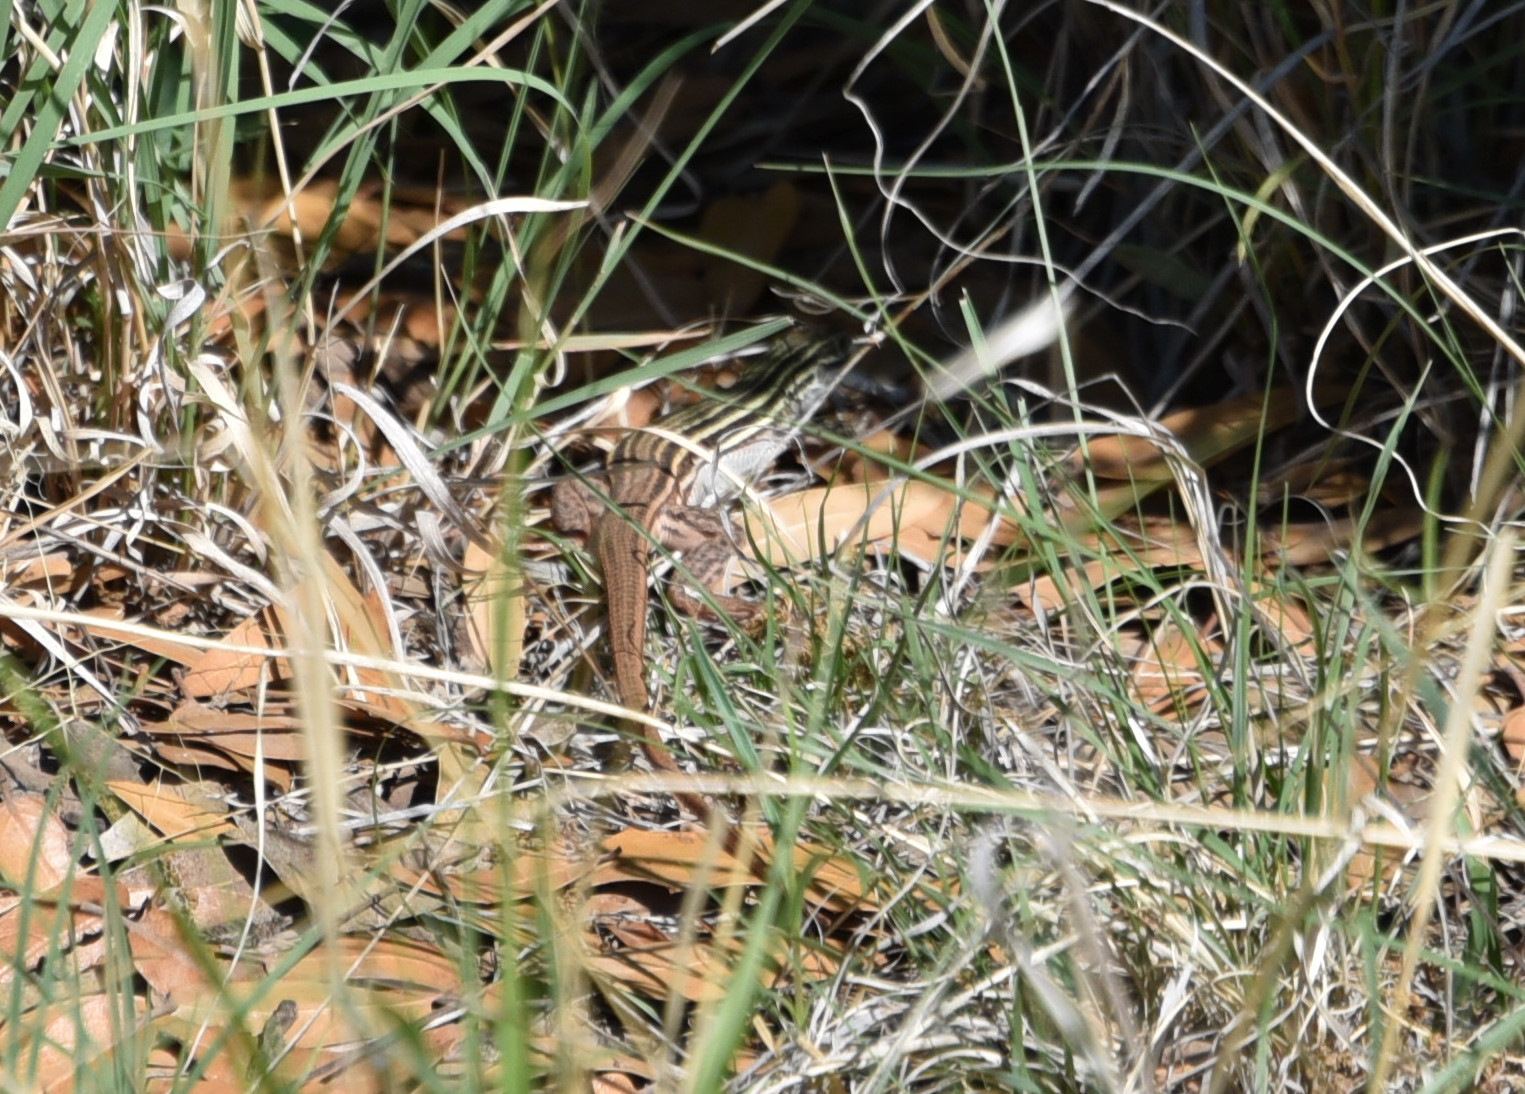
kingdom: Animalia
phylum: Chordata
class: Squamata
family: Teiidae
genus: Aspidoscelis
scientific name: Aspidoscelis gularis
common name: Eastern spotted whiptail
